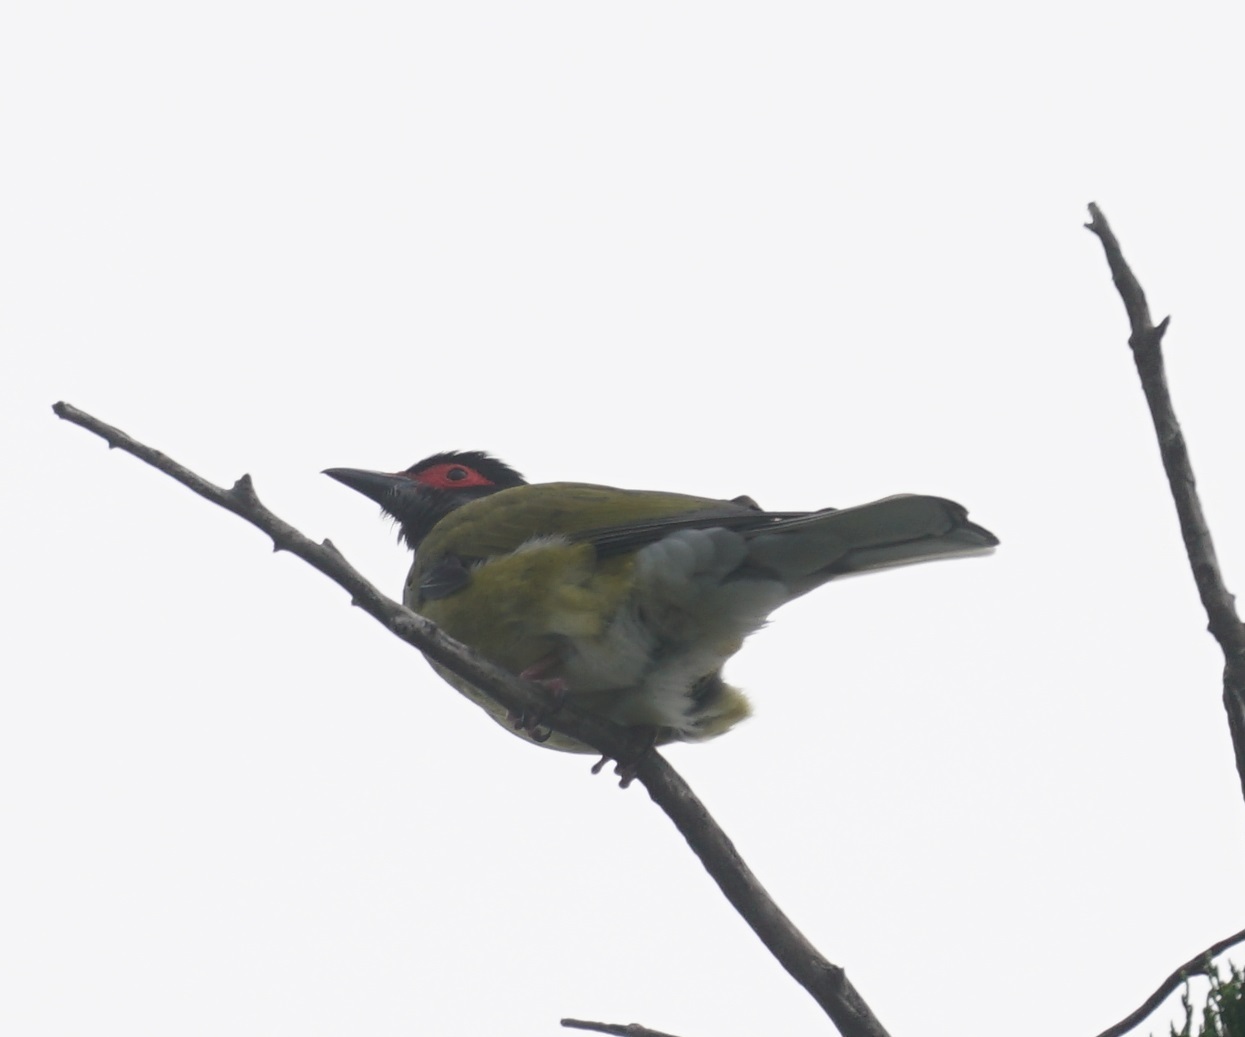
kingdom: Animalia
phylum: Chordata
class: Aves
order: Passeriformes
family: Oriolidae
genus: Sphecotheres
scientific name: Sphecotheres vieilloti
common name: Australasian figbird
